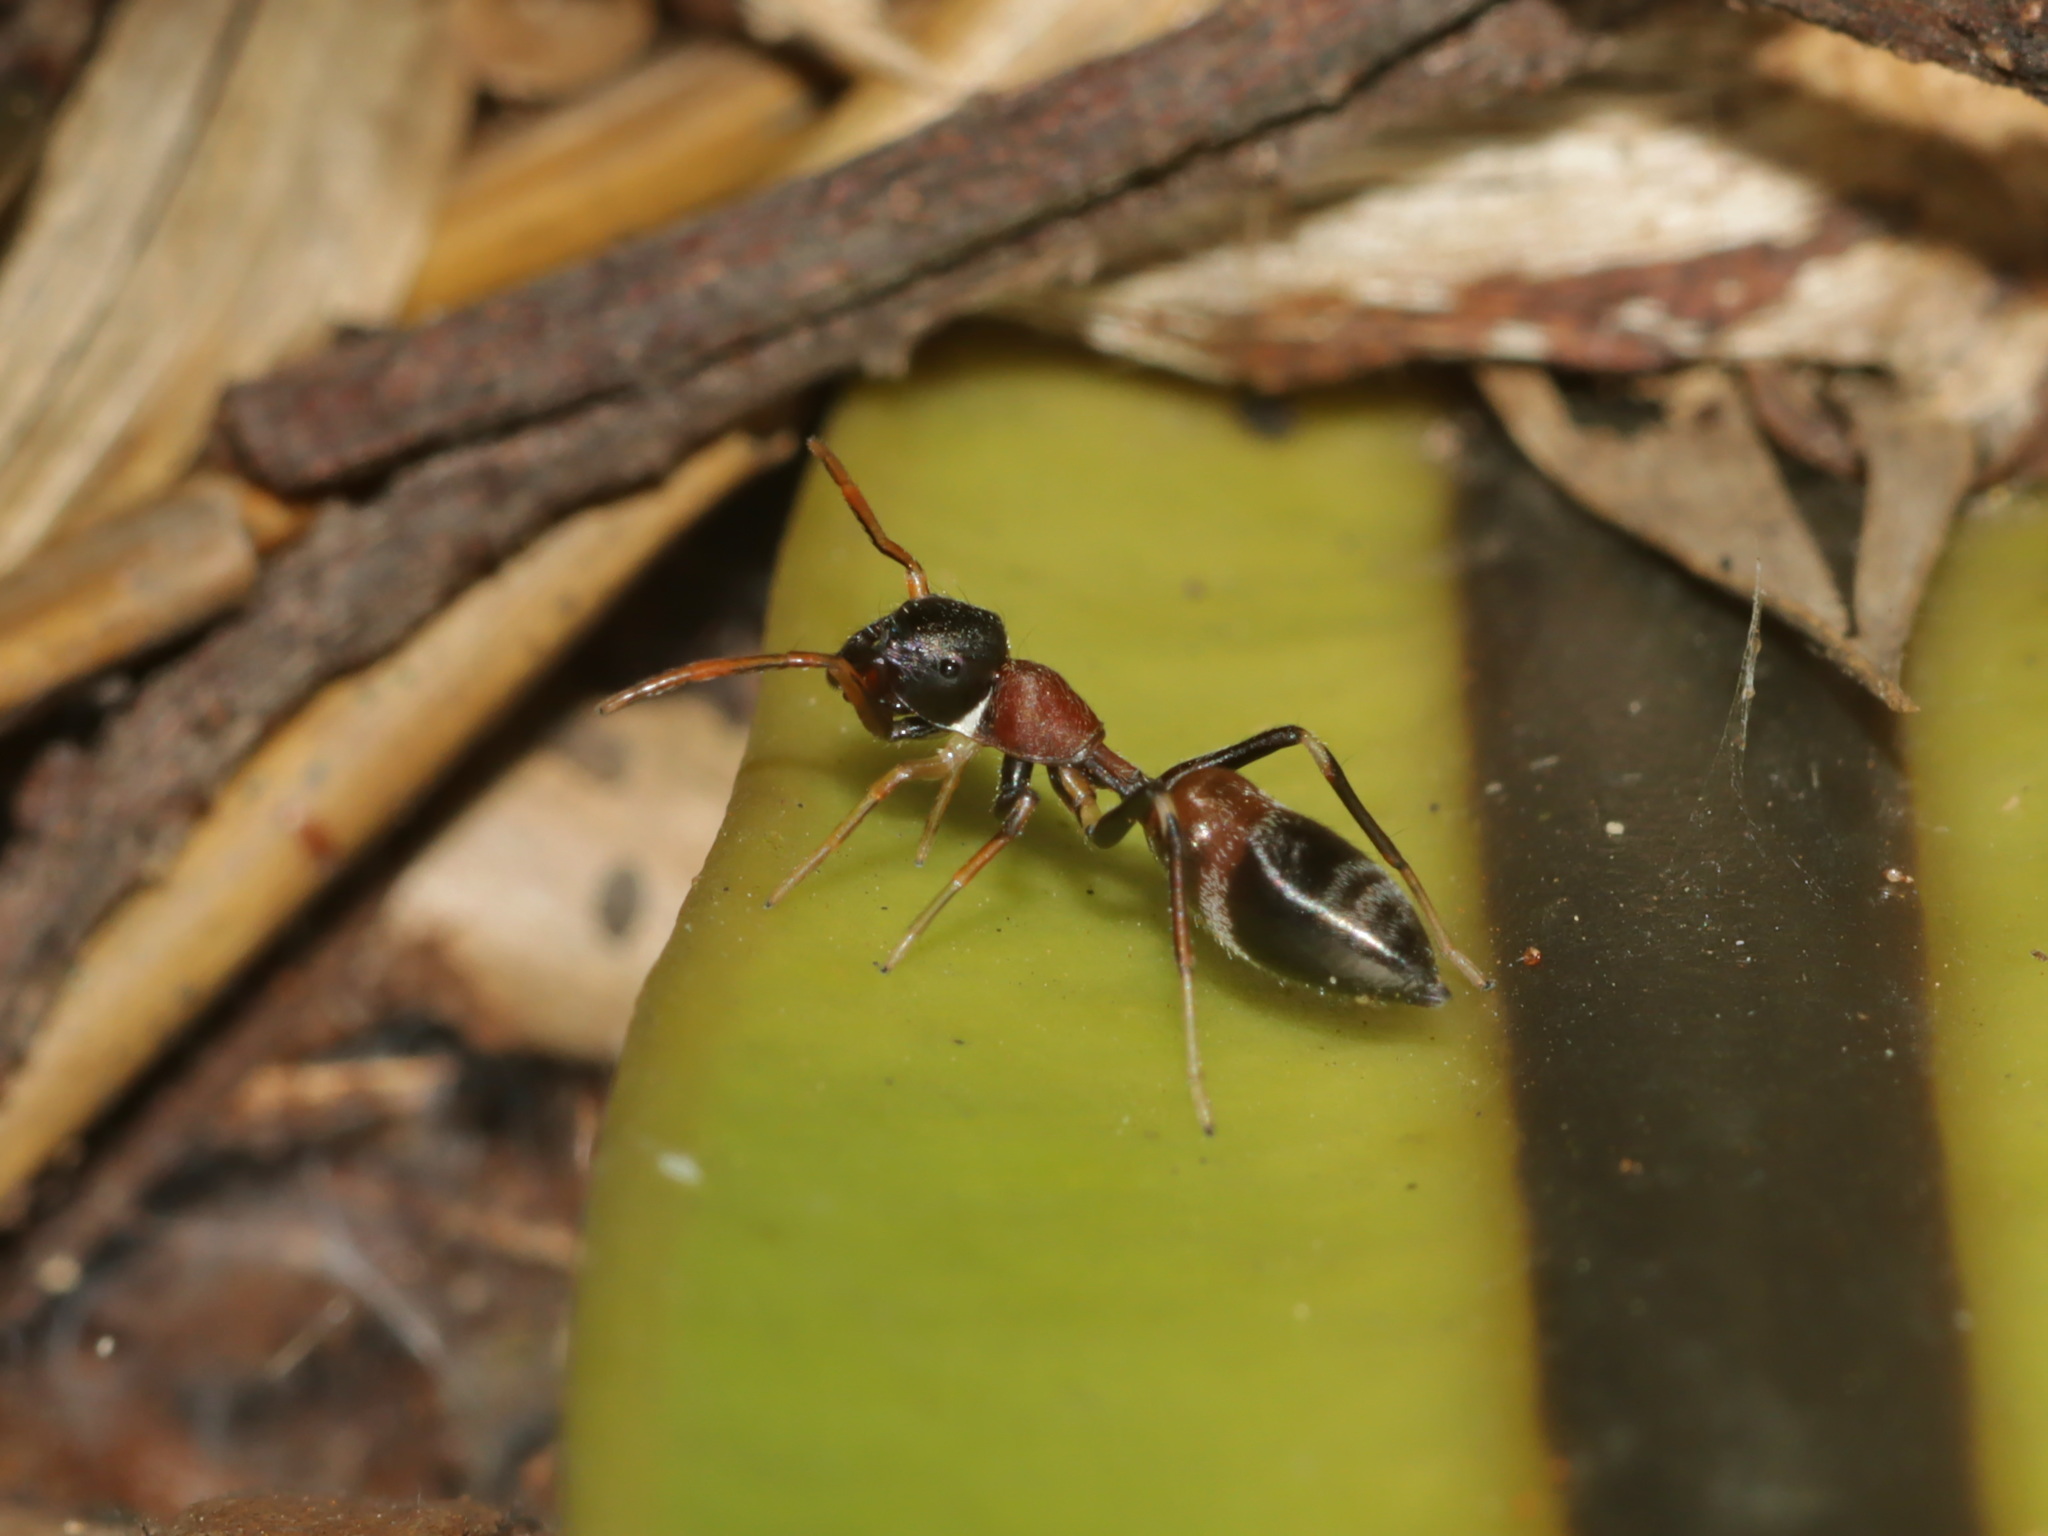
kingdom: Animalia
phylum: Arthropoda
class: Arachnida
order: Araneae
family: Salticidae
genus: Myrmarachne
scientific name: Myrmarachne melanocephala
